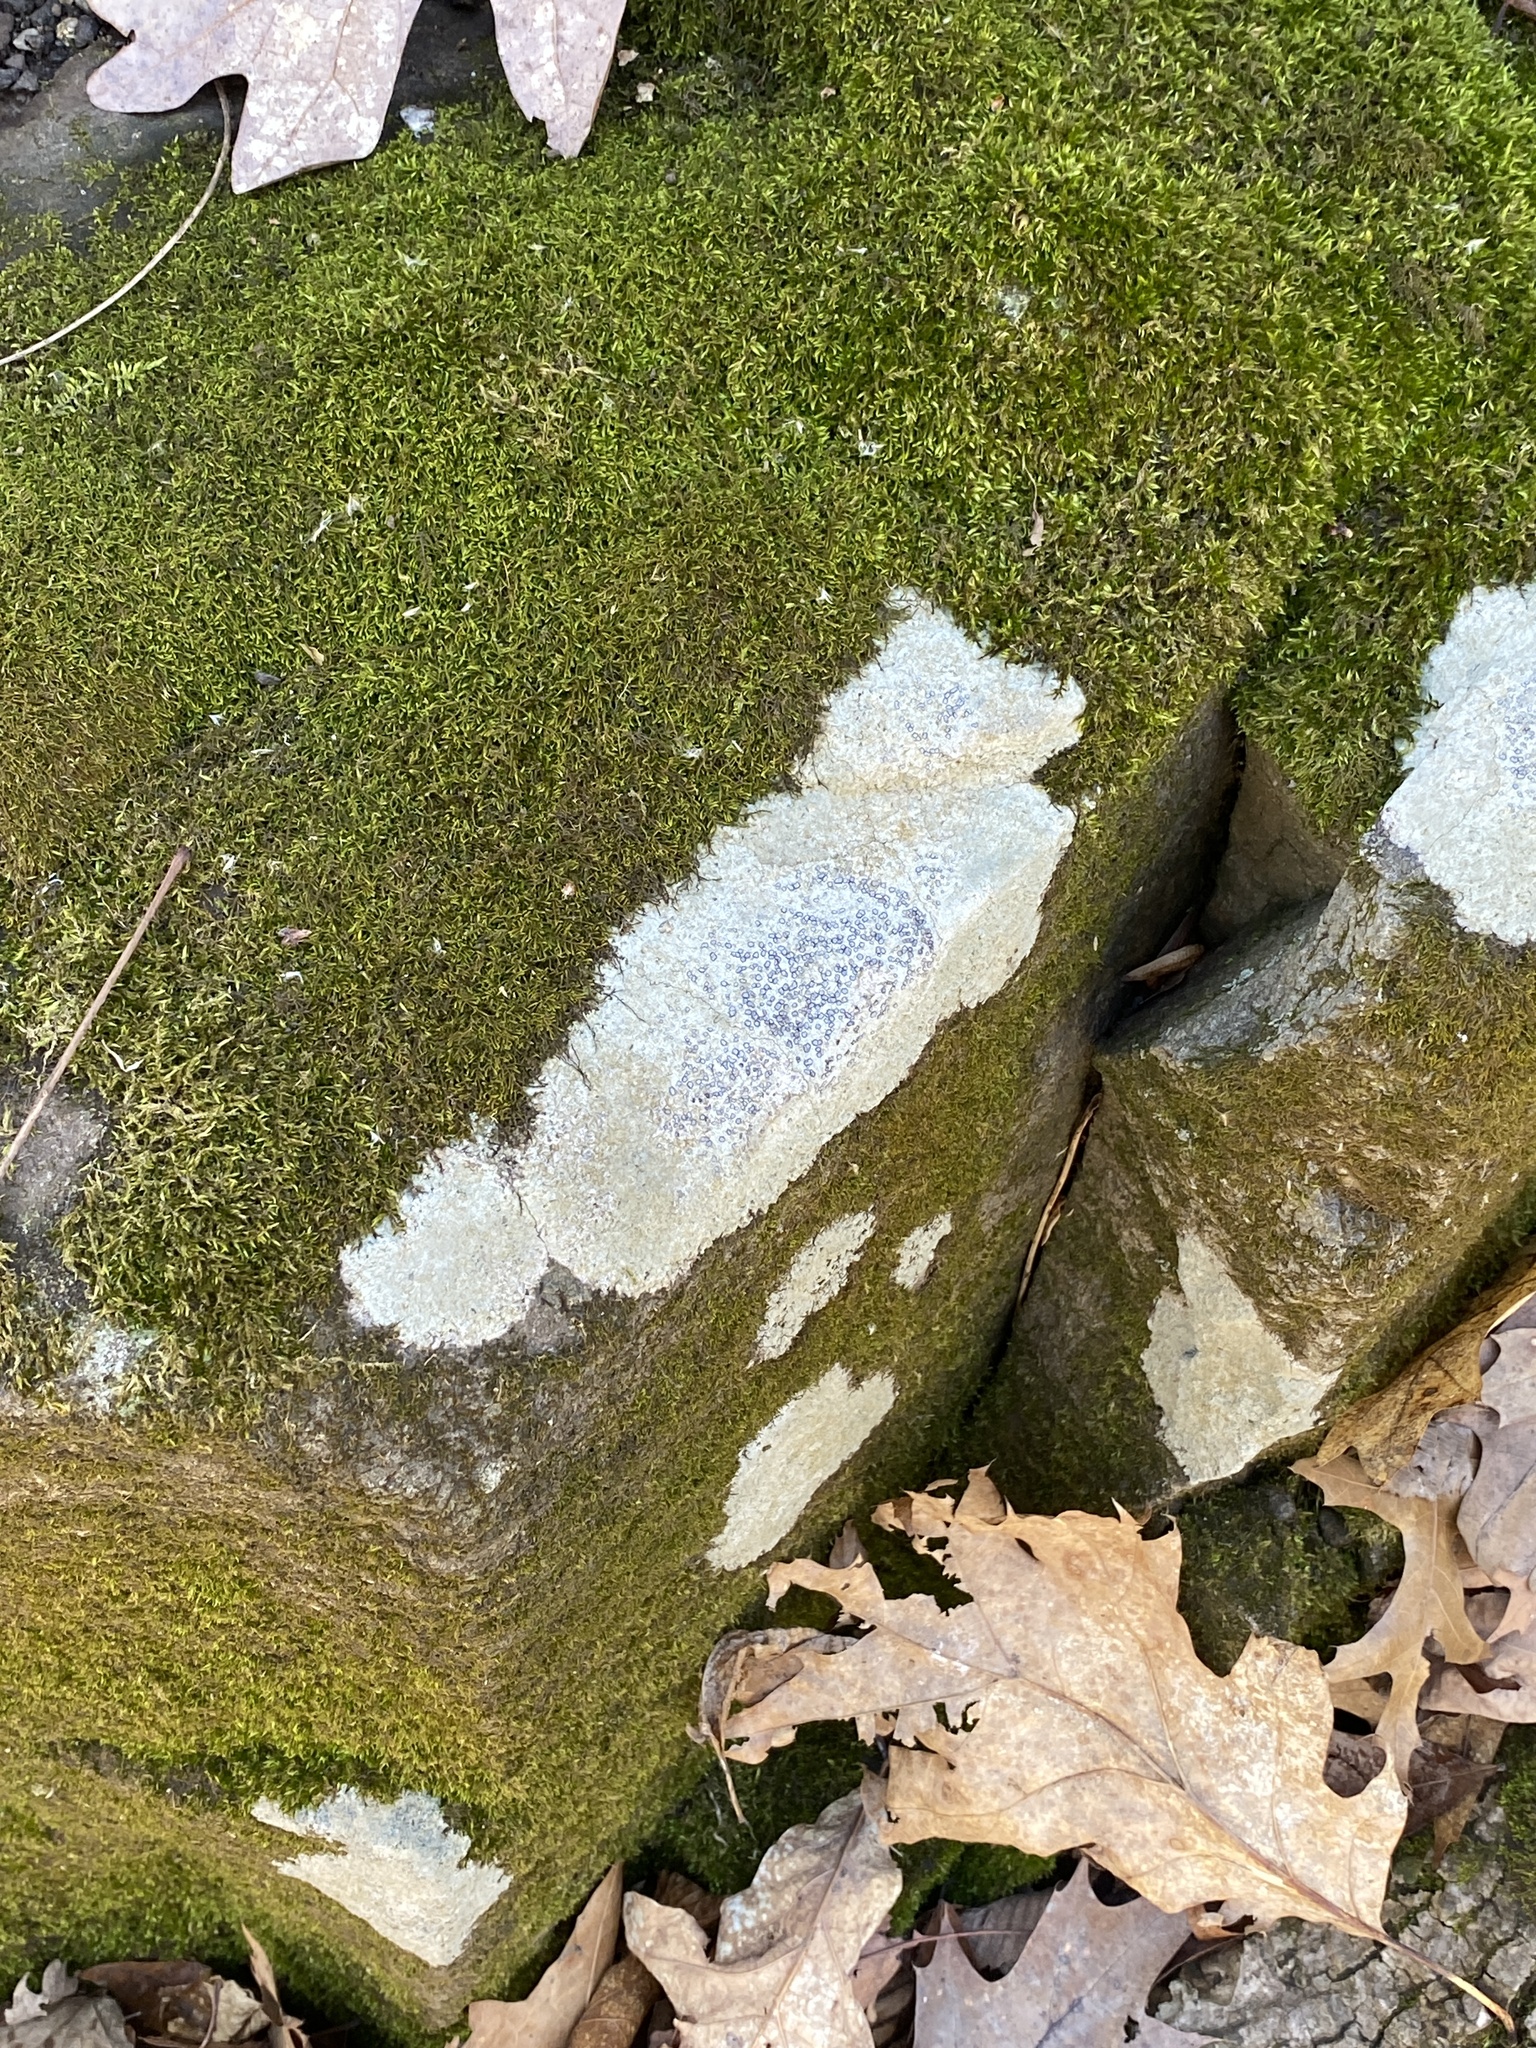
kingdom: Fungi
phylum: Ascomycota
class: Lecanoromycetes
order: Lecideales
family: Lecideaceae
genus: Porpidia
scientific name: Porpidia albocaerulescens
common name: Smokey-eyed boulder lichen
